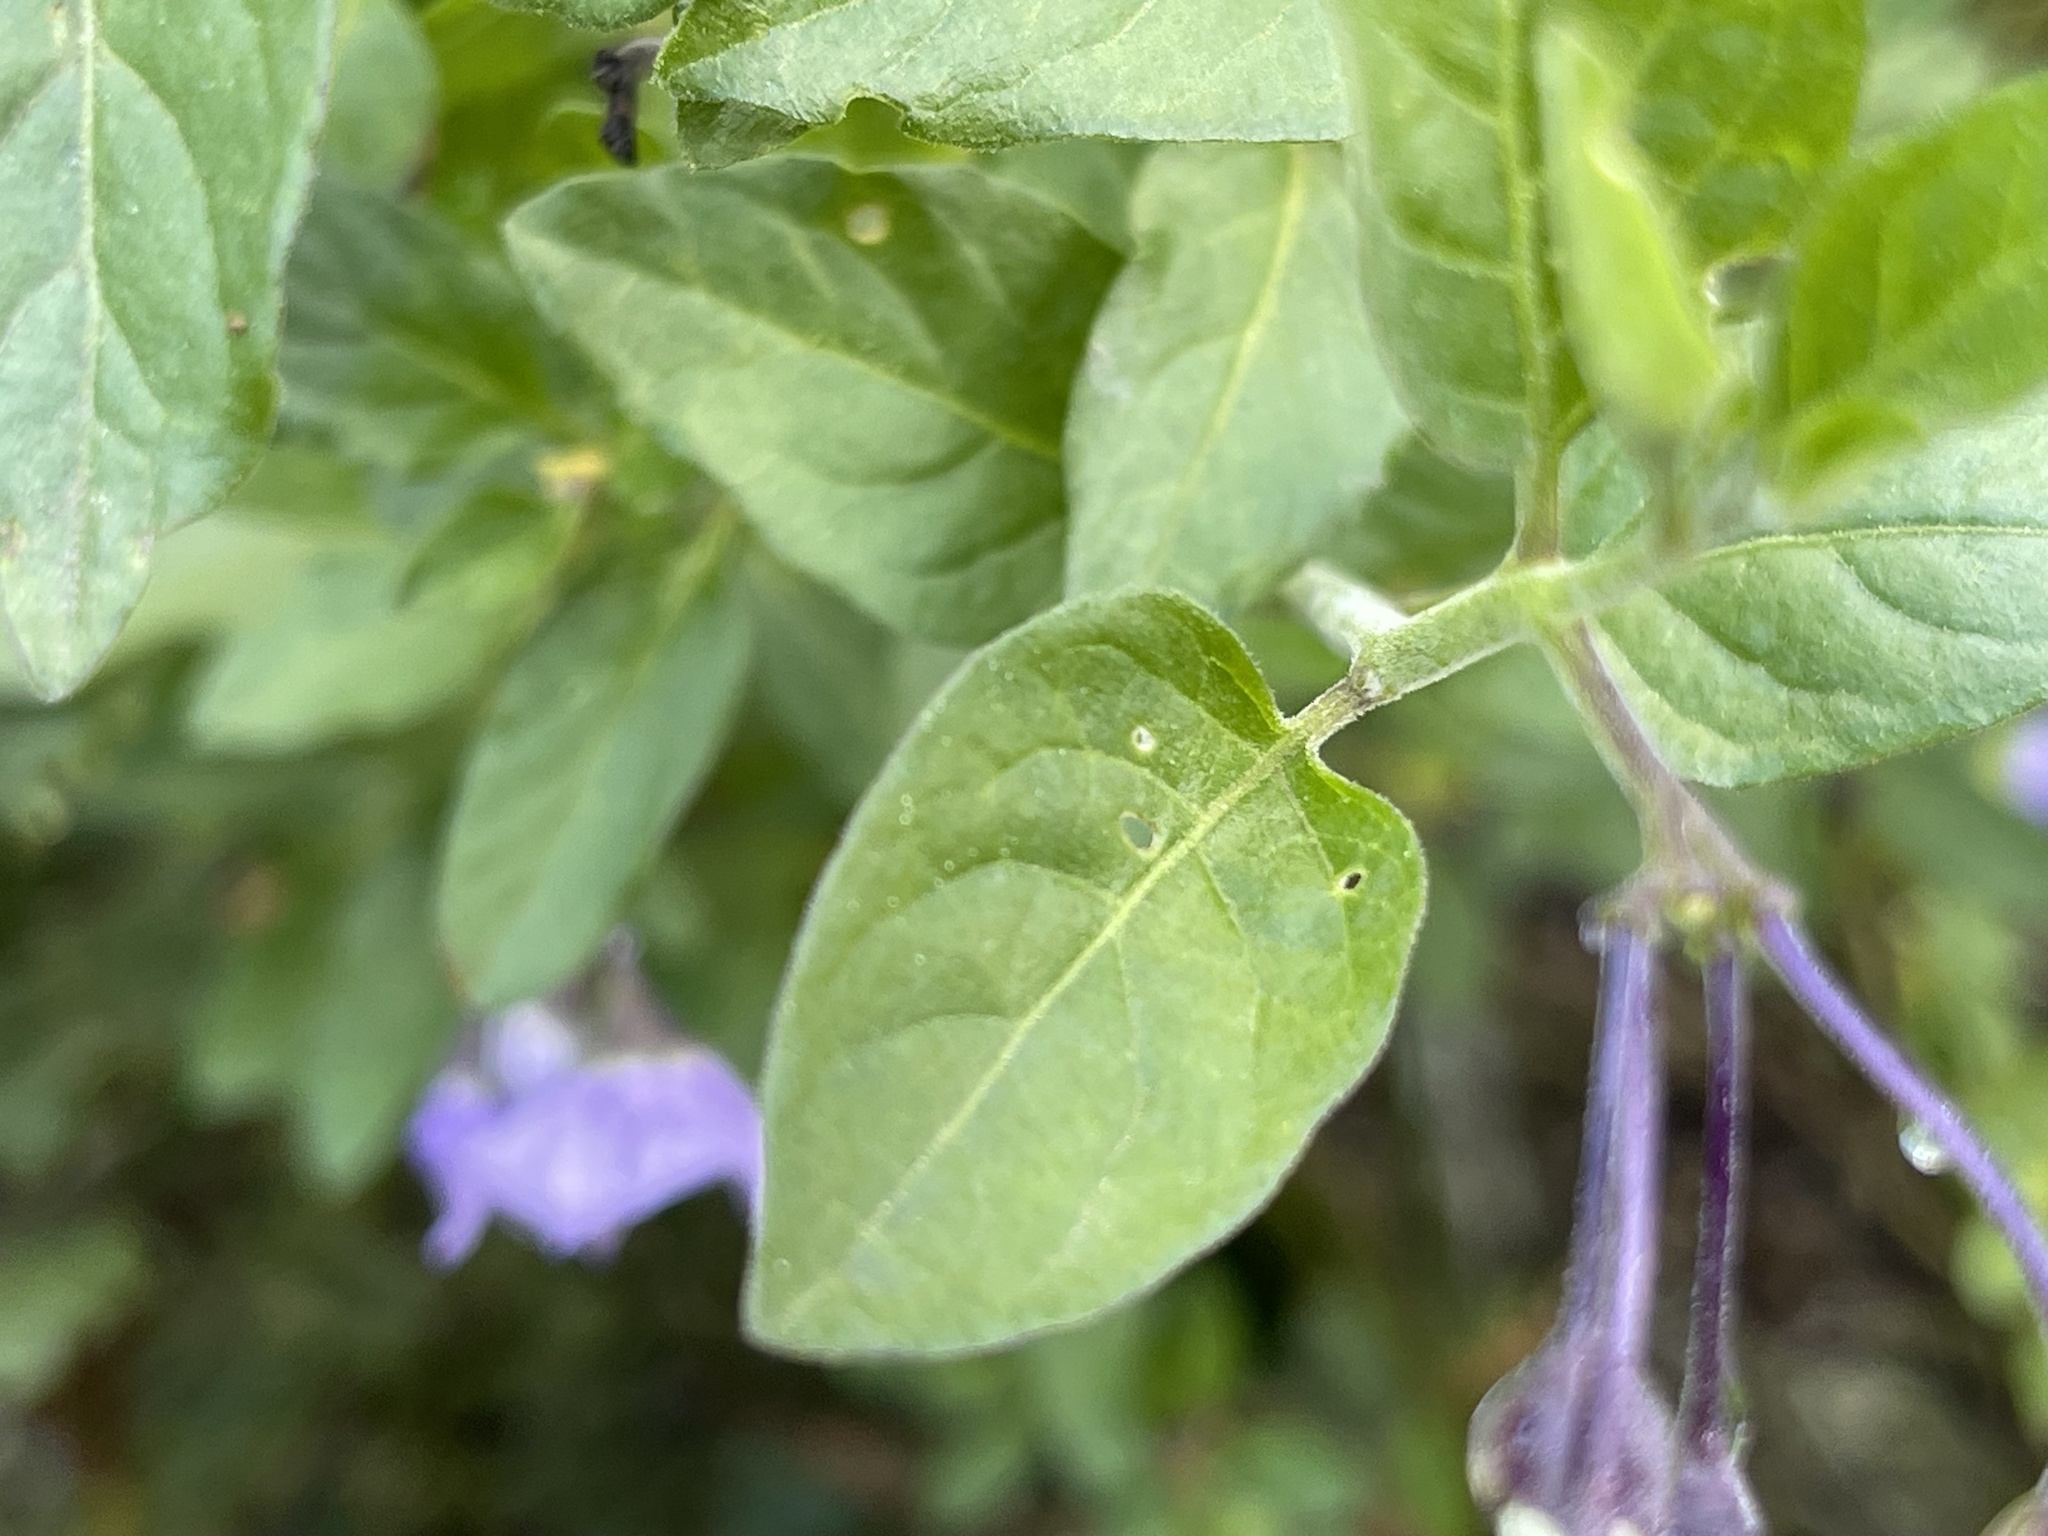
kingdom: Plantae
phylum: Tracheophyta
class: Magnoliopsida
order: Solanales
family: Solanaceae
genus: Solanum
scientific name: Solanum umbelliferum
